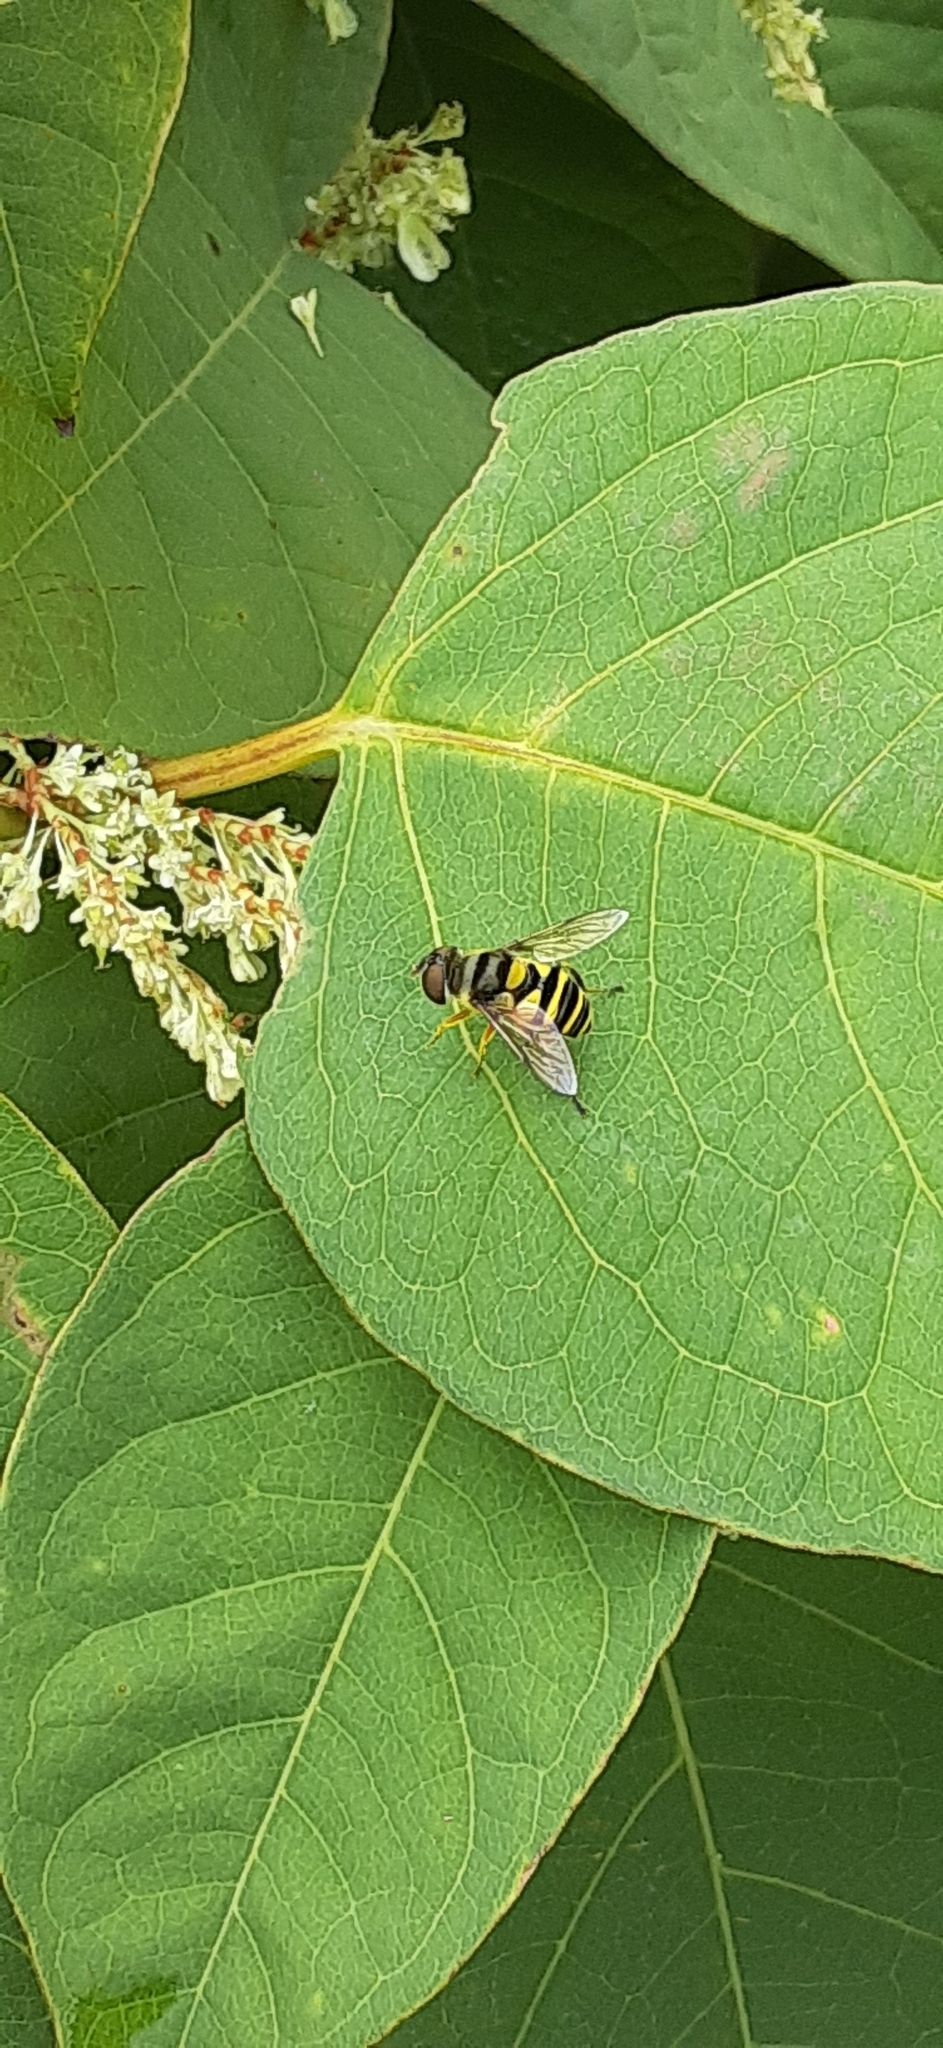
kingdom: Animalia
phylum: Arthropoda
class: Insecta
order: Diptera
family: Syrphidae
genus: Eristalis
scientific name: Eristalis transversa
